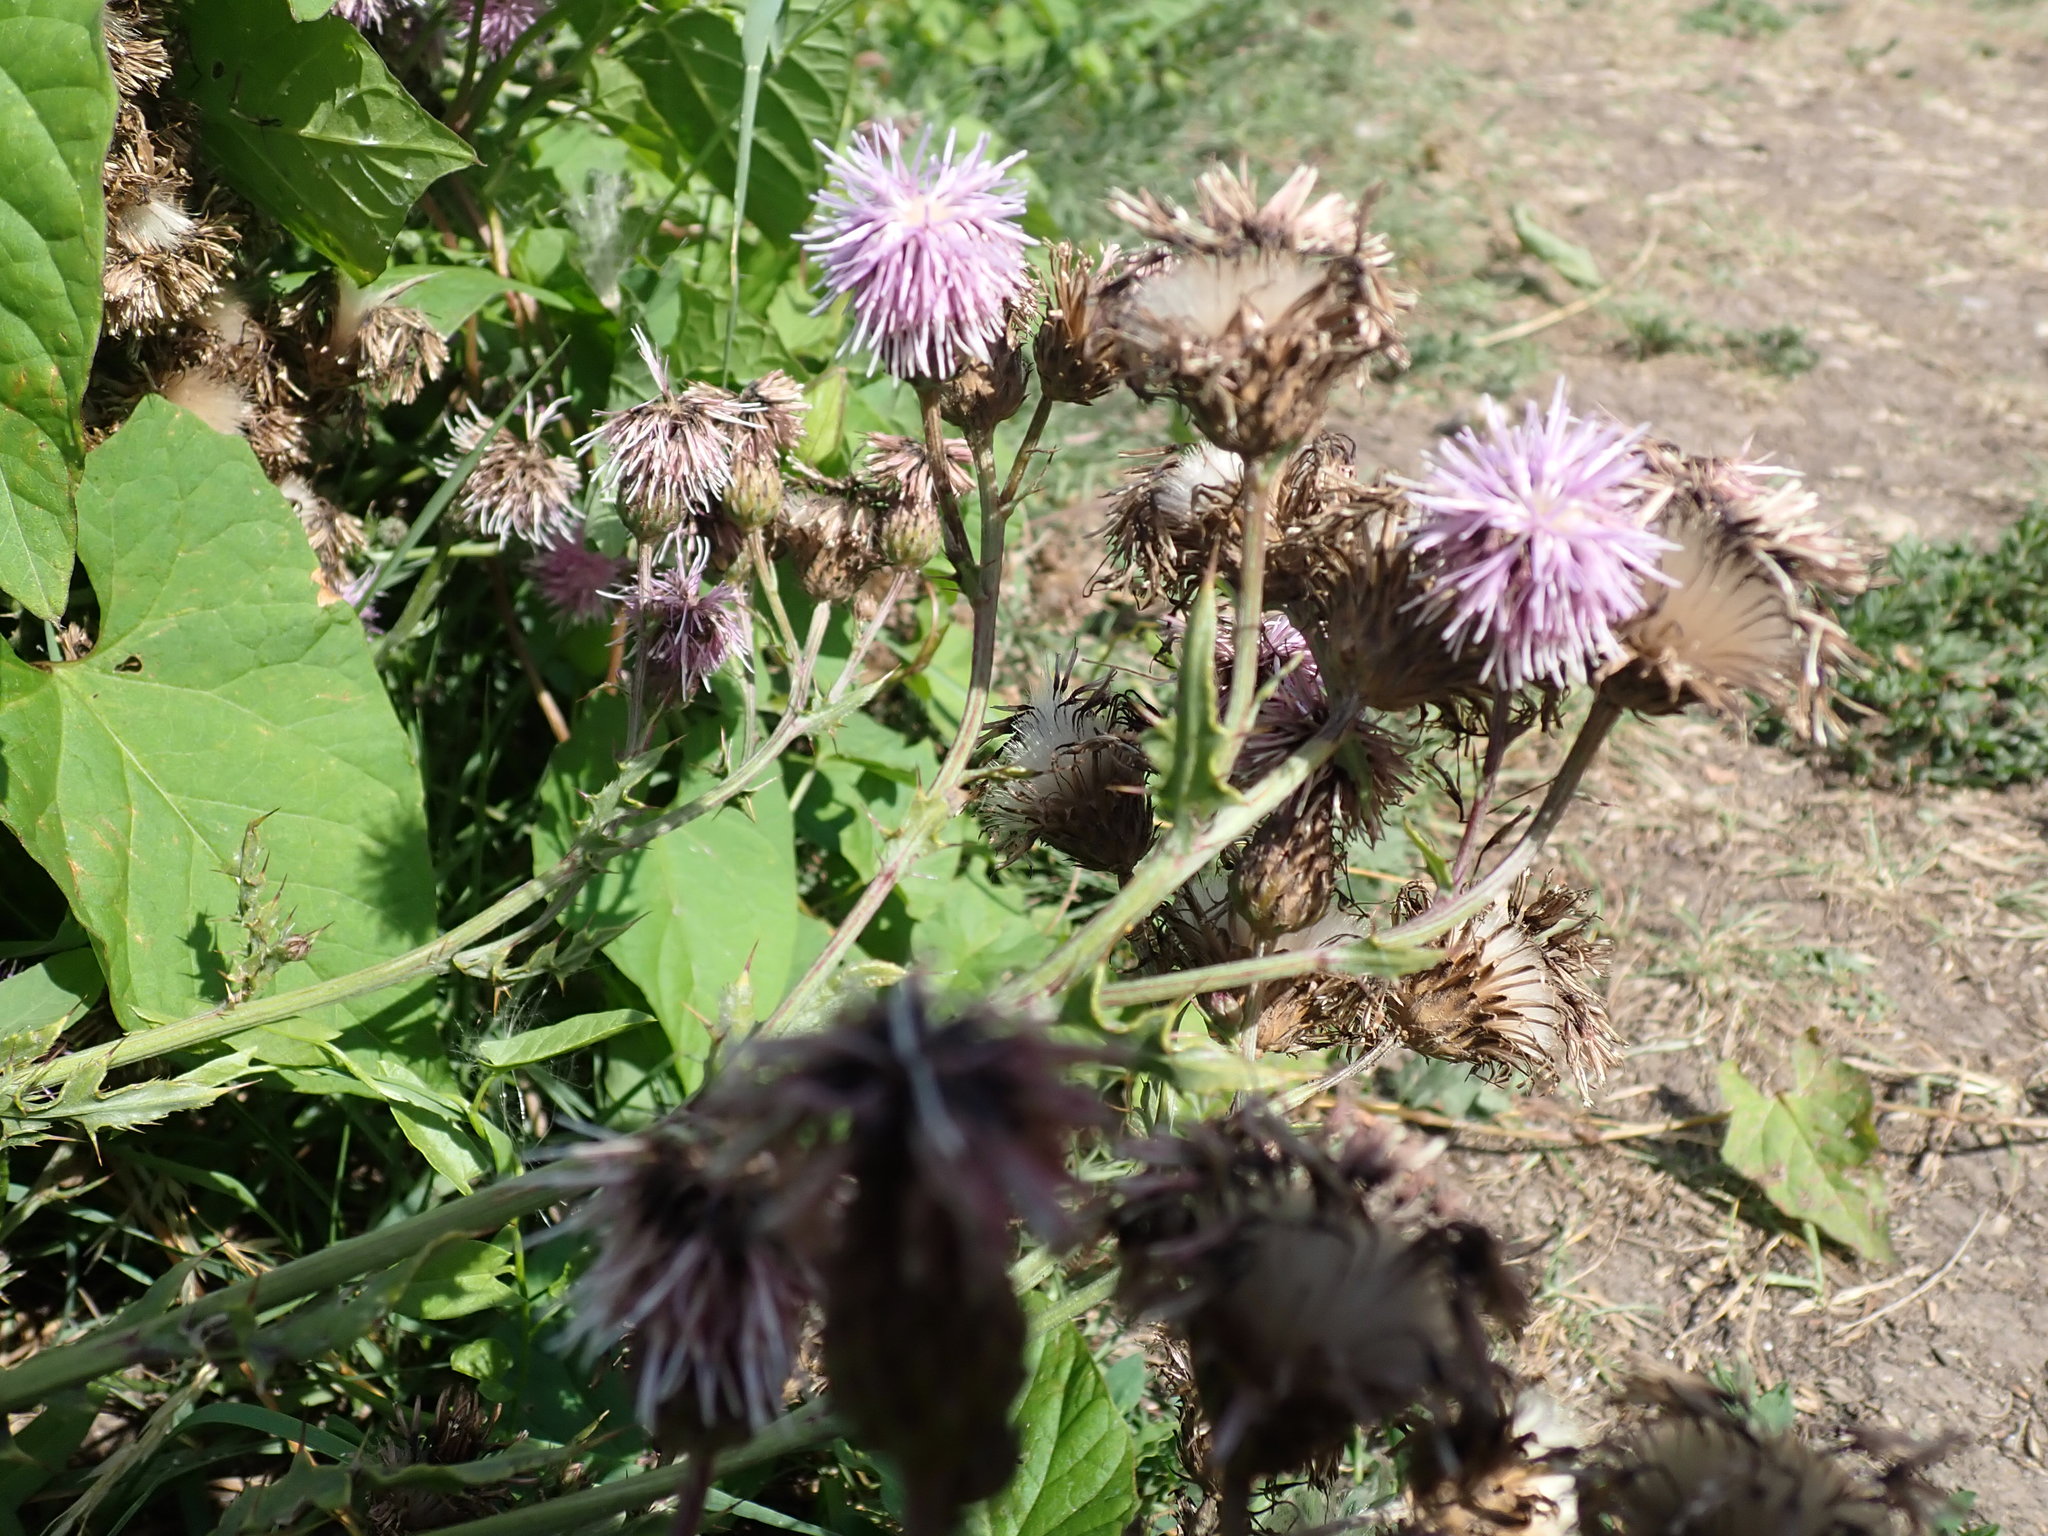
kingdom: Plantae
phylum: Tracheophyta
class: Magnoliopsida
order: Asterales
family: Asteraceae
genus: Cirsium
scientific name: Cirsium arvense
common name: Creeping thistle
